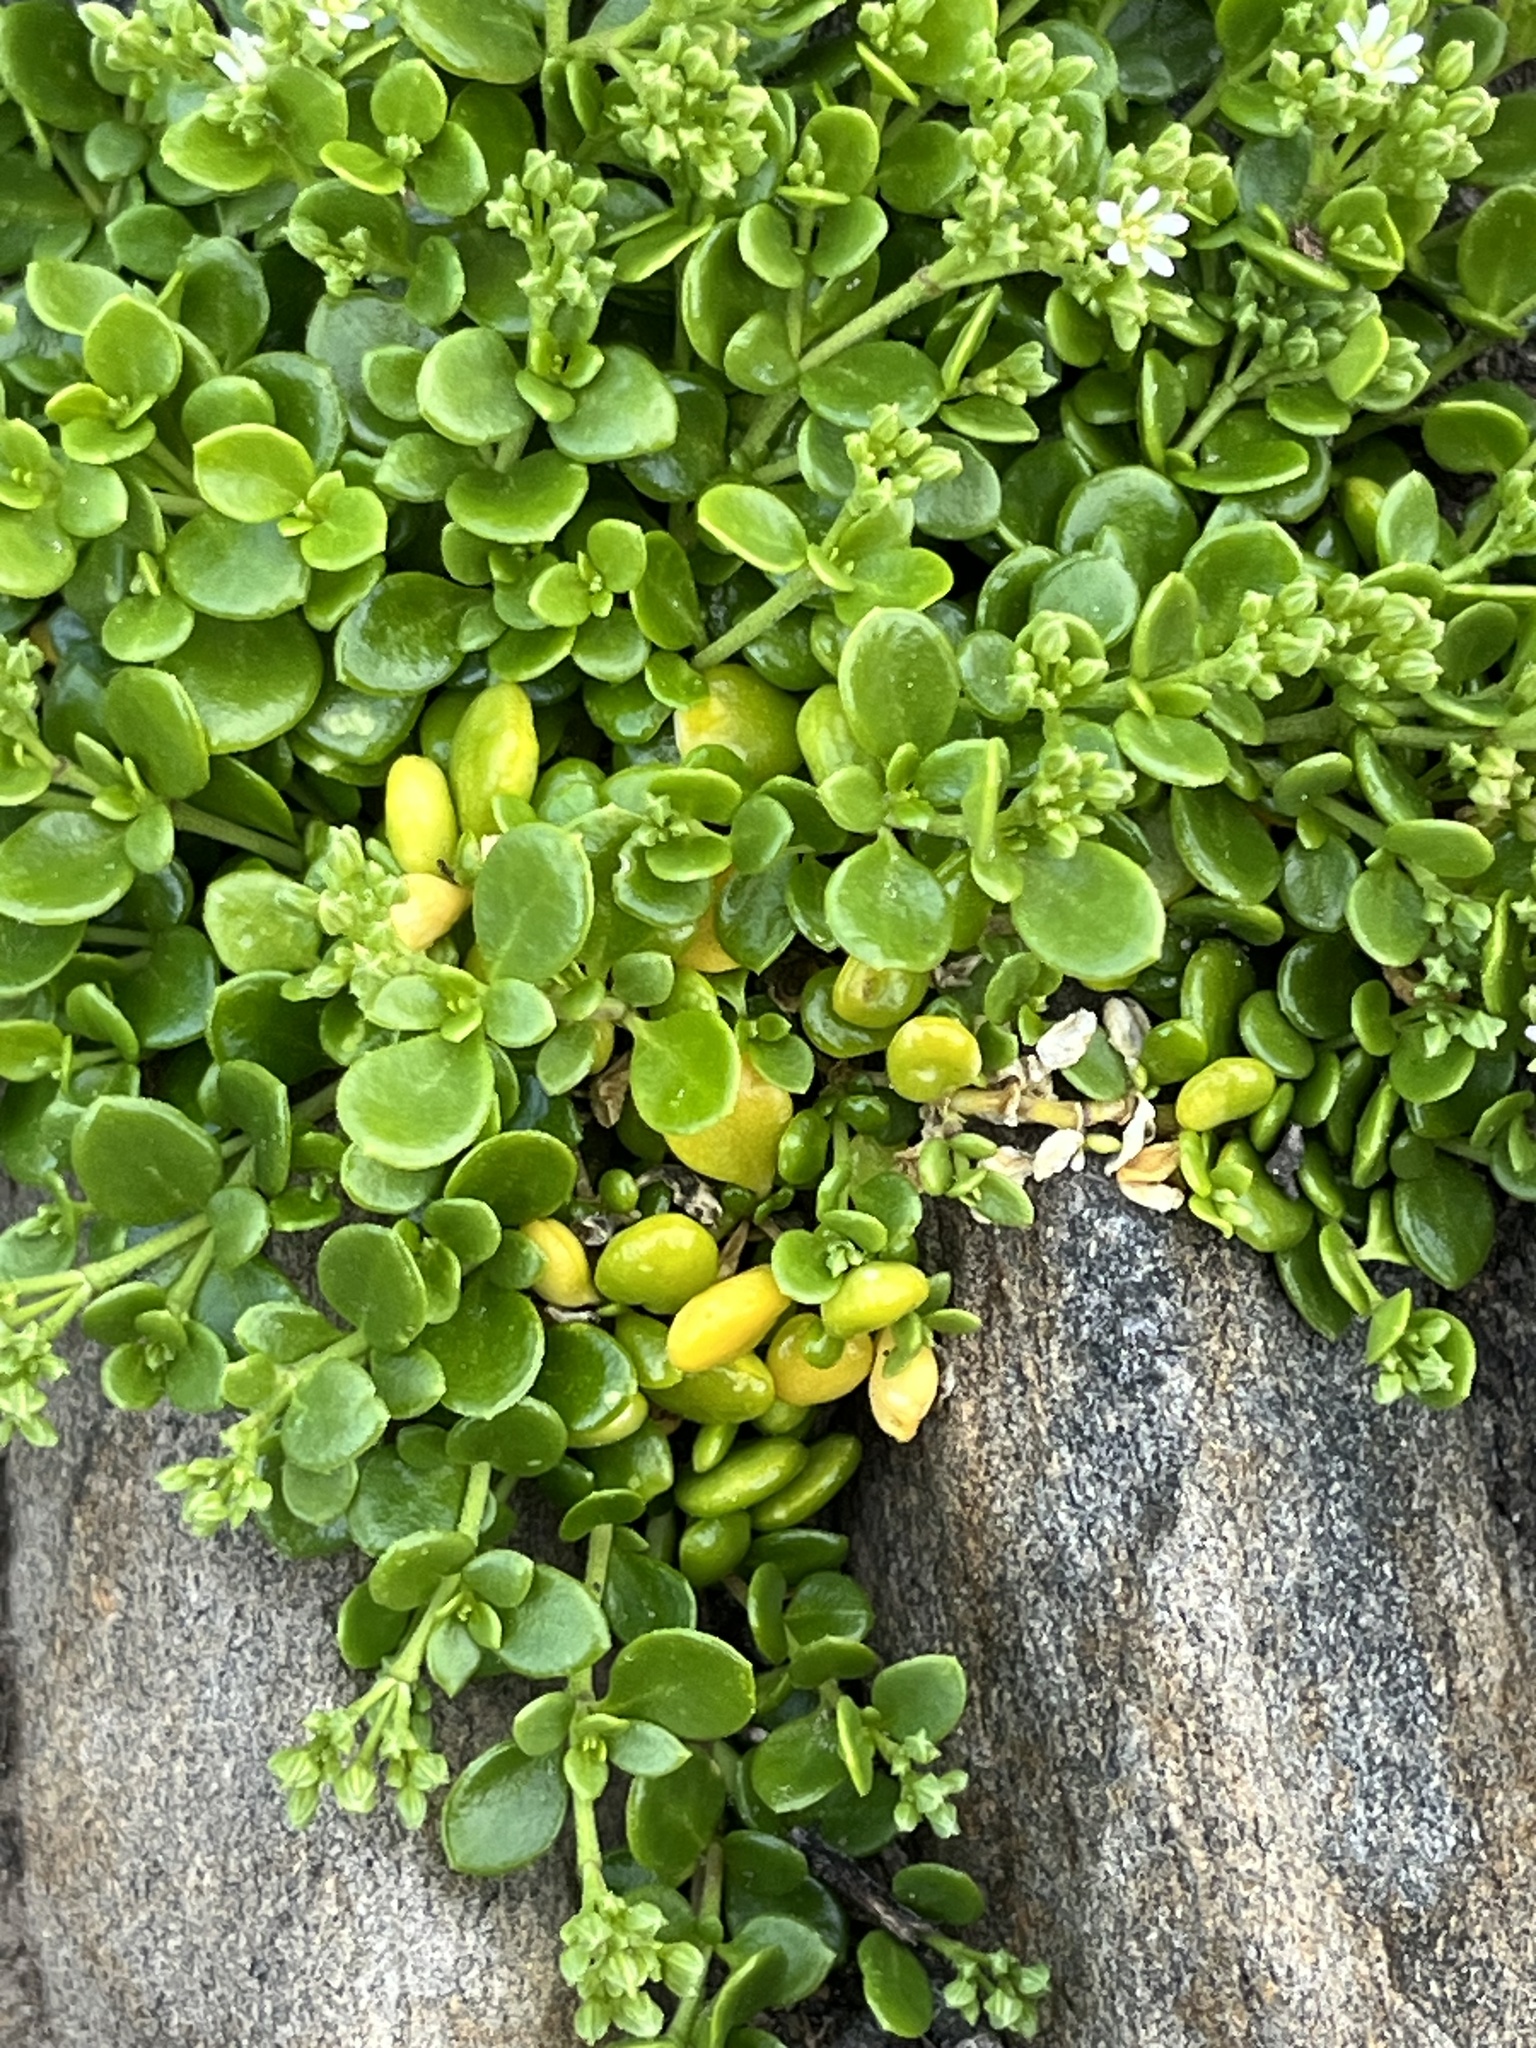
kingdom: Plantae
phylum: Tracheophyta
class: Magnoliopsida
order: Caryophyllales
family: Caryophyllaceae
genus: Polycarpon
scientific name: Polycarpon tetraphyllum
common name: Four-leaved all-seed
